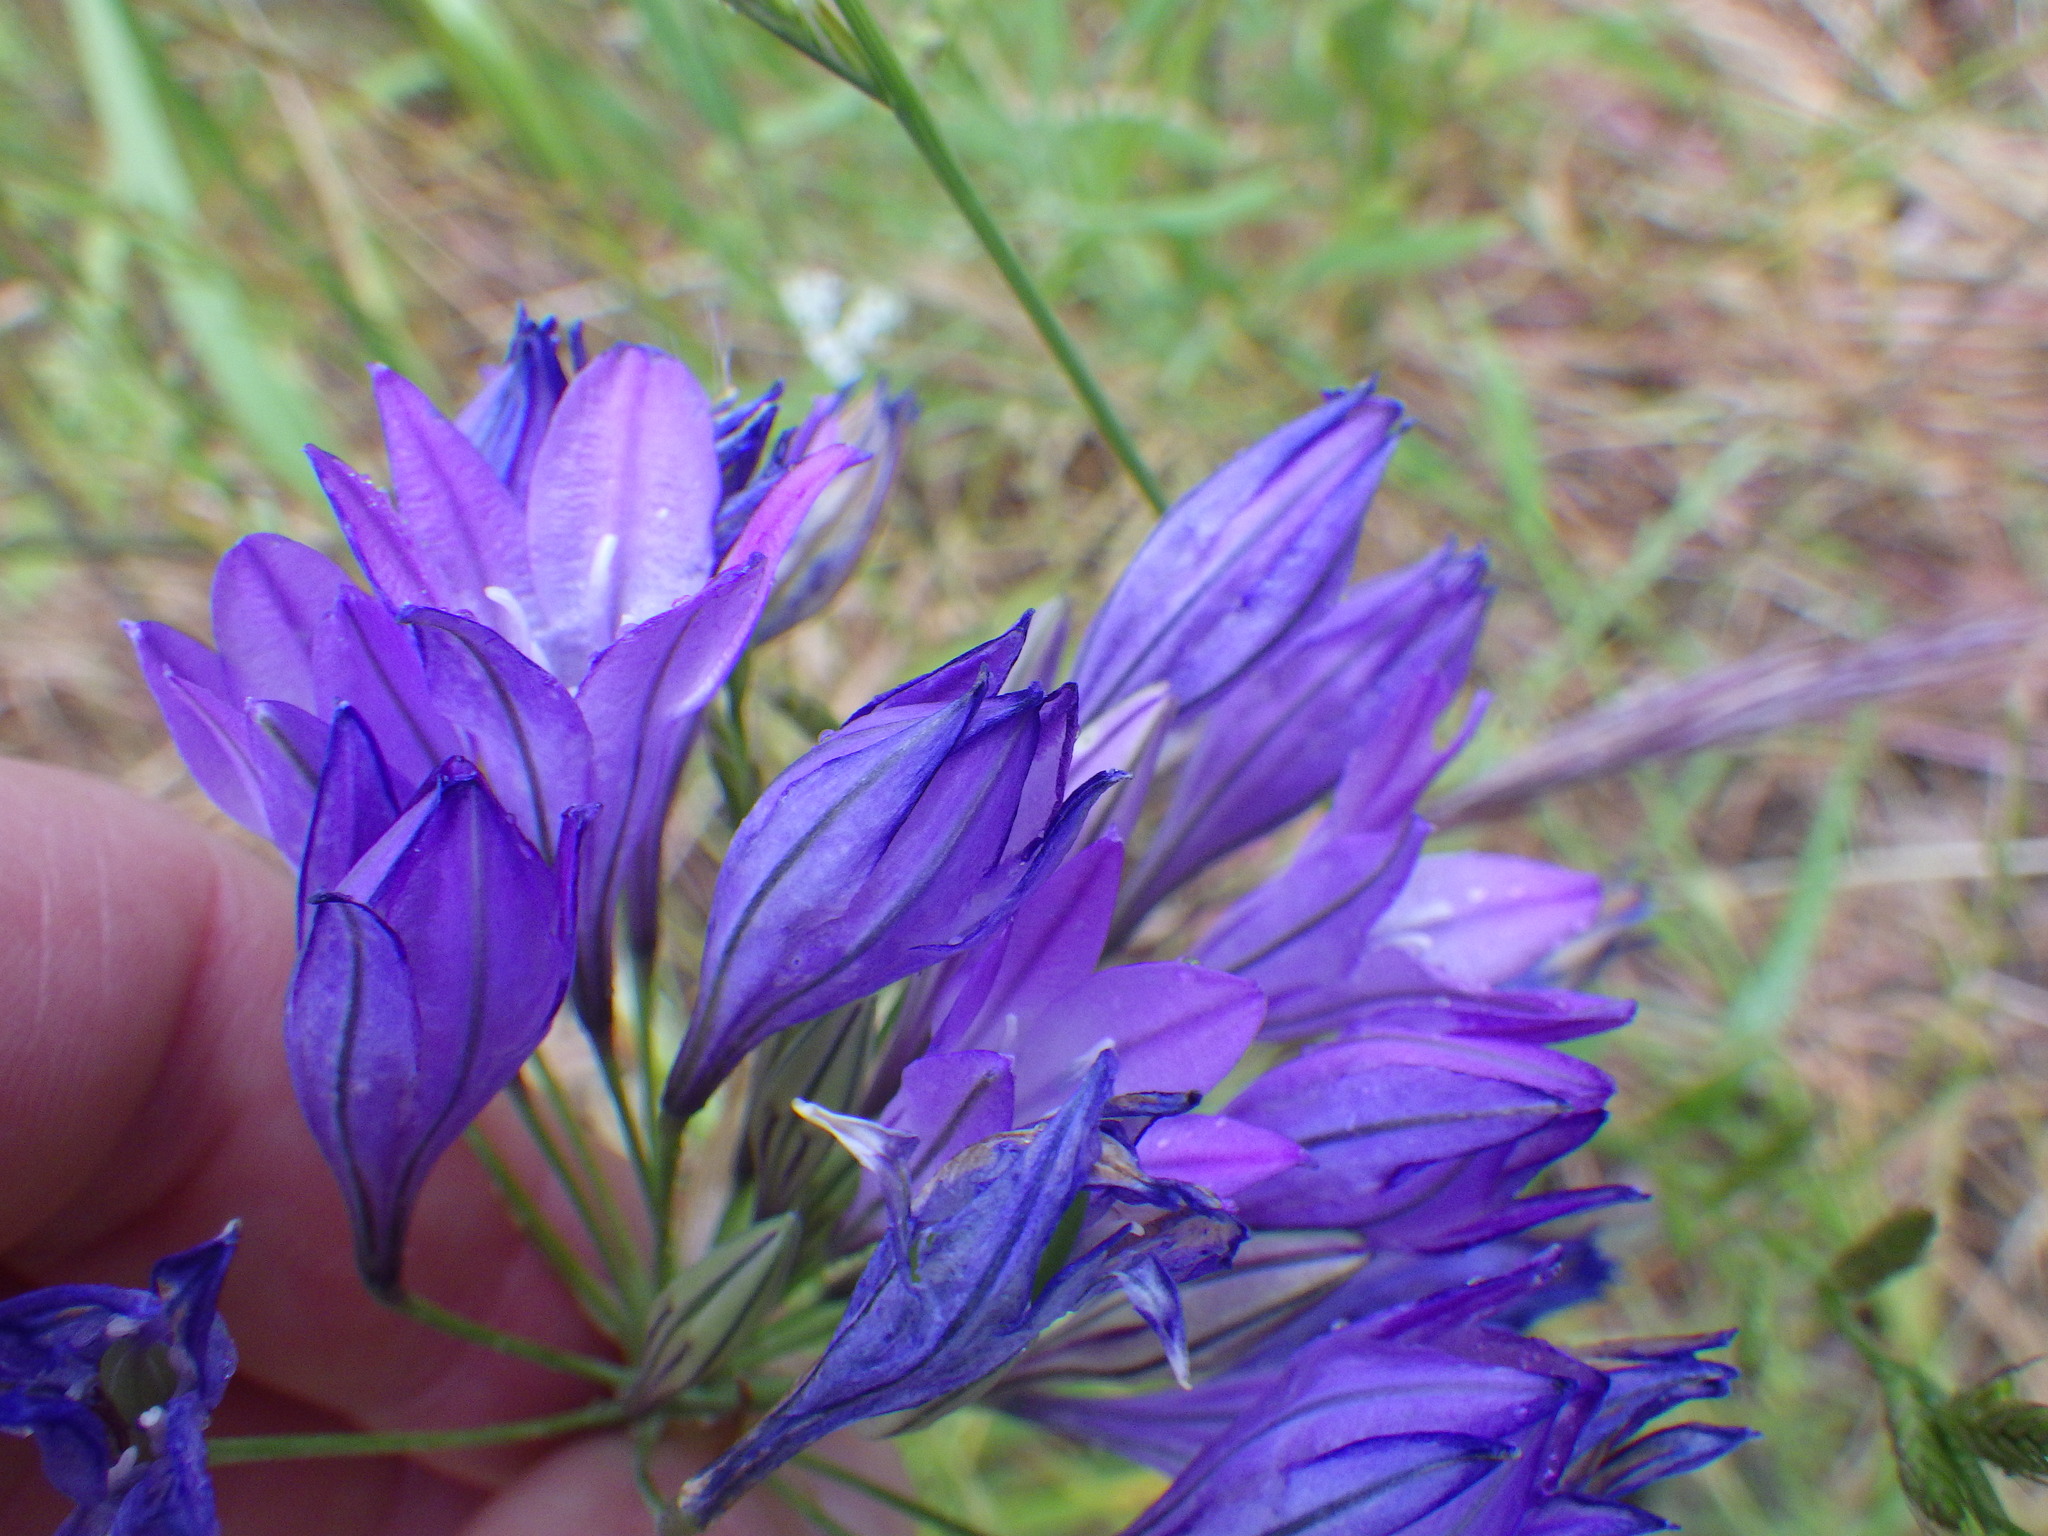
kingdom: Plantae
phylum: Tracheophyta
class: Liliopsida
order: Asparagales
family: Asparagaceae
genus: Triteleia
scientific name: Triteleia laxa
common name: Triplet-lily
